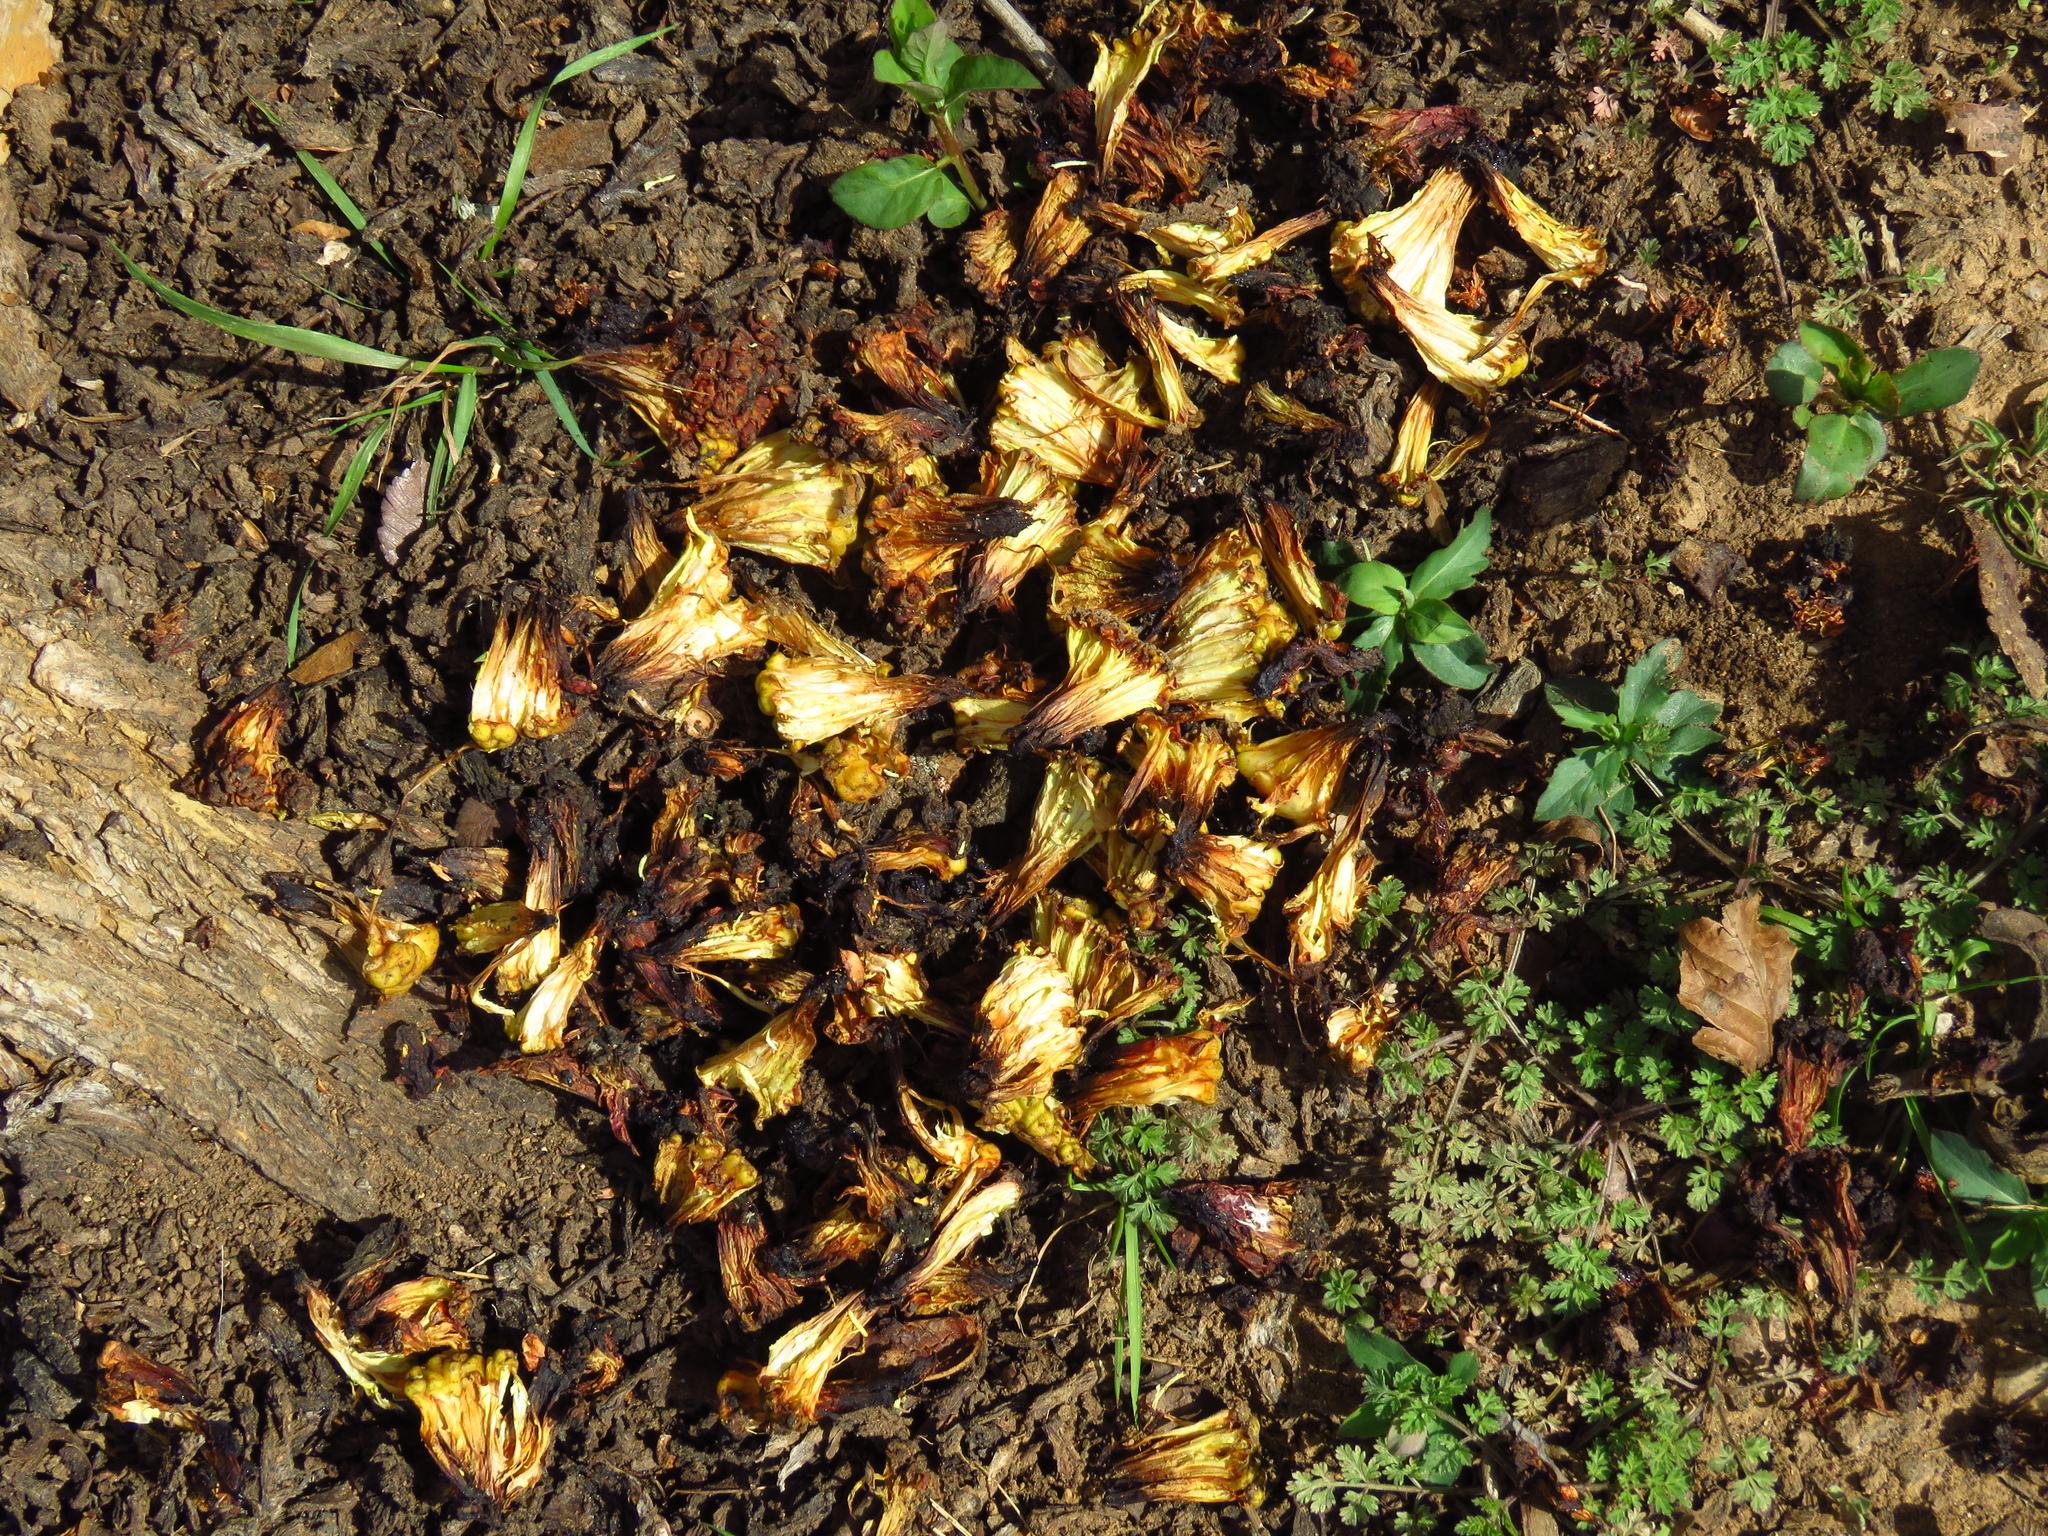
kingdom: Plantae
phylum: Tracheophyta
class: Magnoliopsida
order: Rosales
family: Moraceae
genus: Maclura
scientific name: Maclura pomifera
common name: Osage-orange
